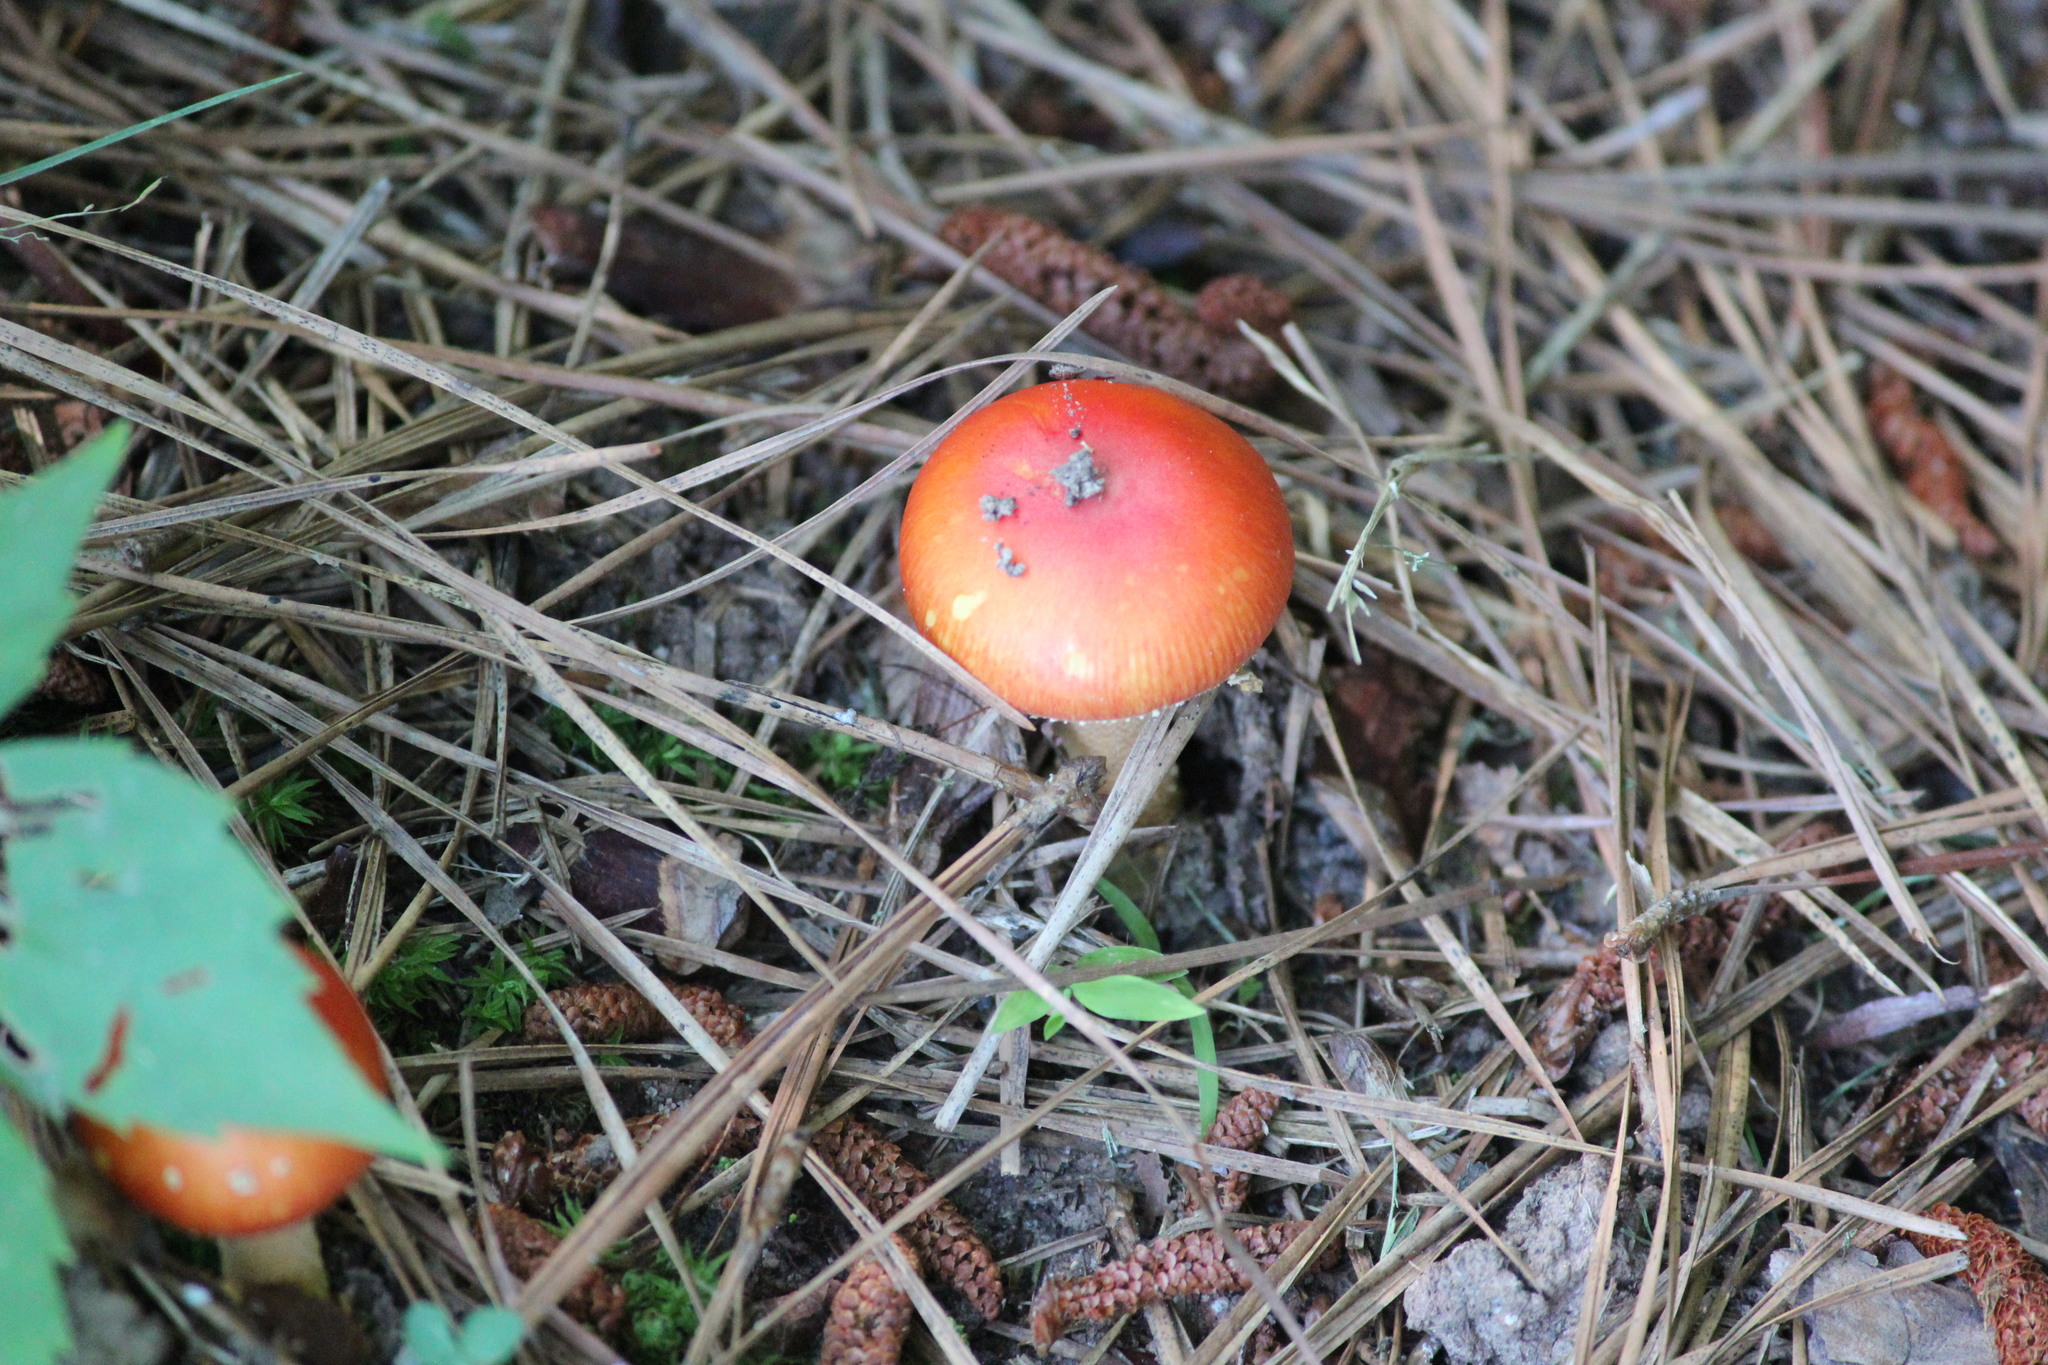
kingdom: Fungi
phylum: Basidiomycota
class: Agaricomycetes
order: Agaricales
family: Amanitaceae
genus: Amanita
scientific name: Amanita parcivolvata
